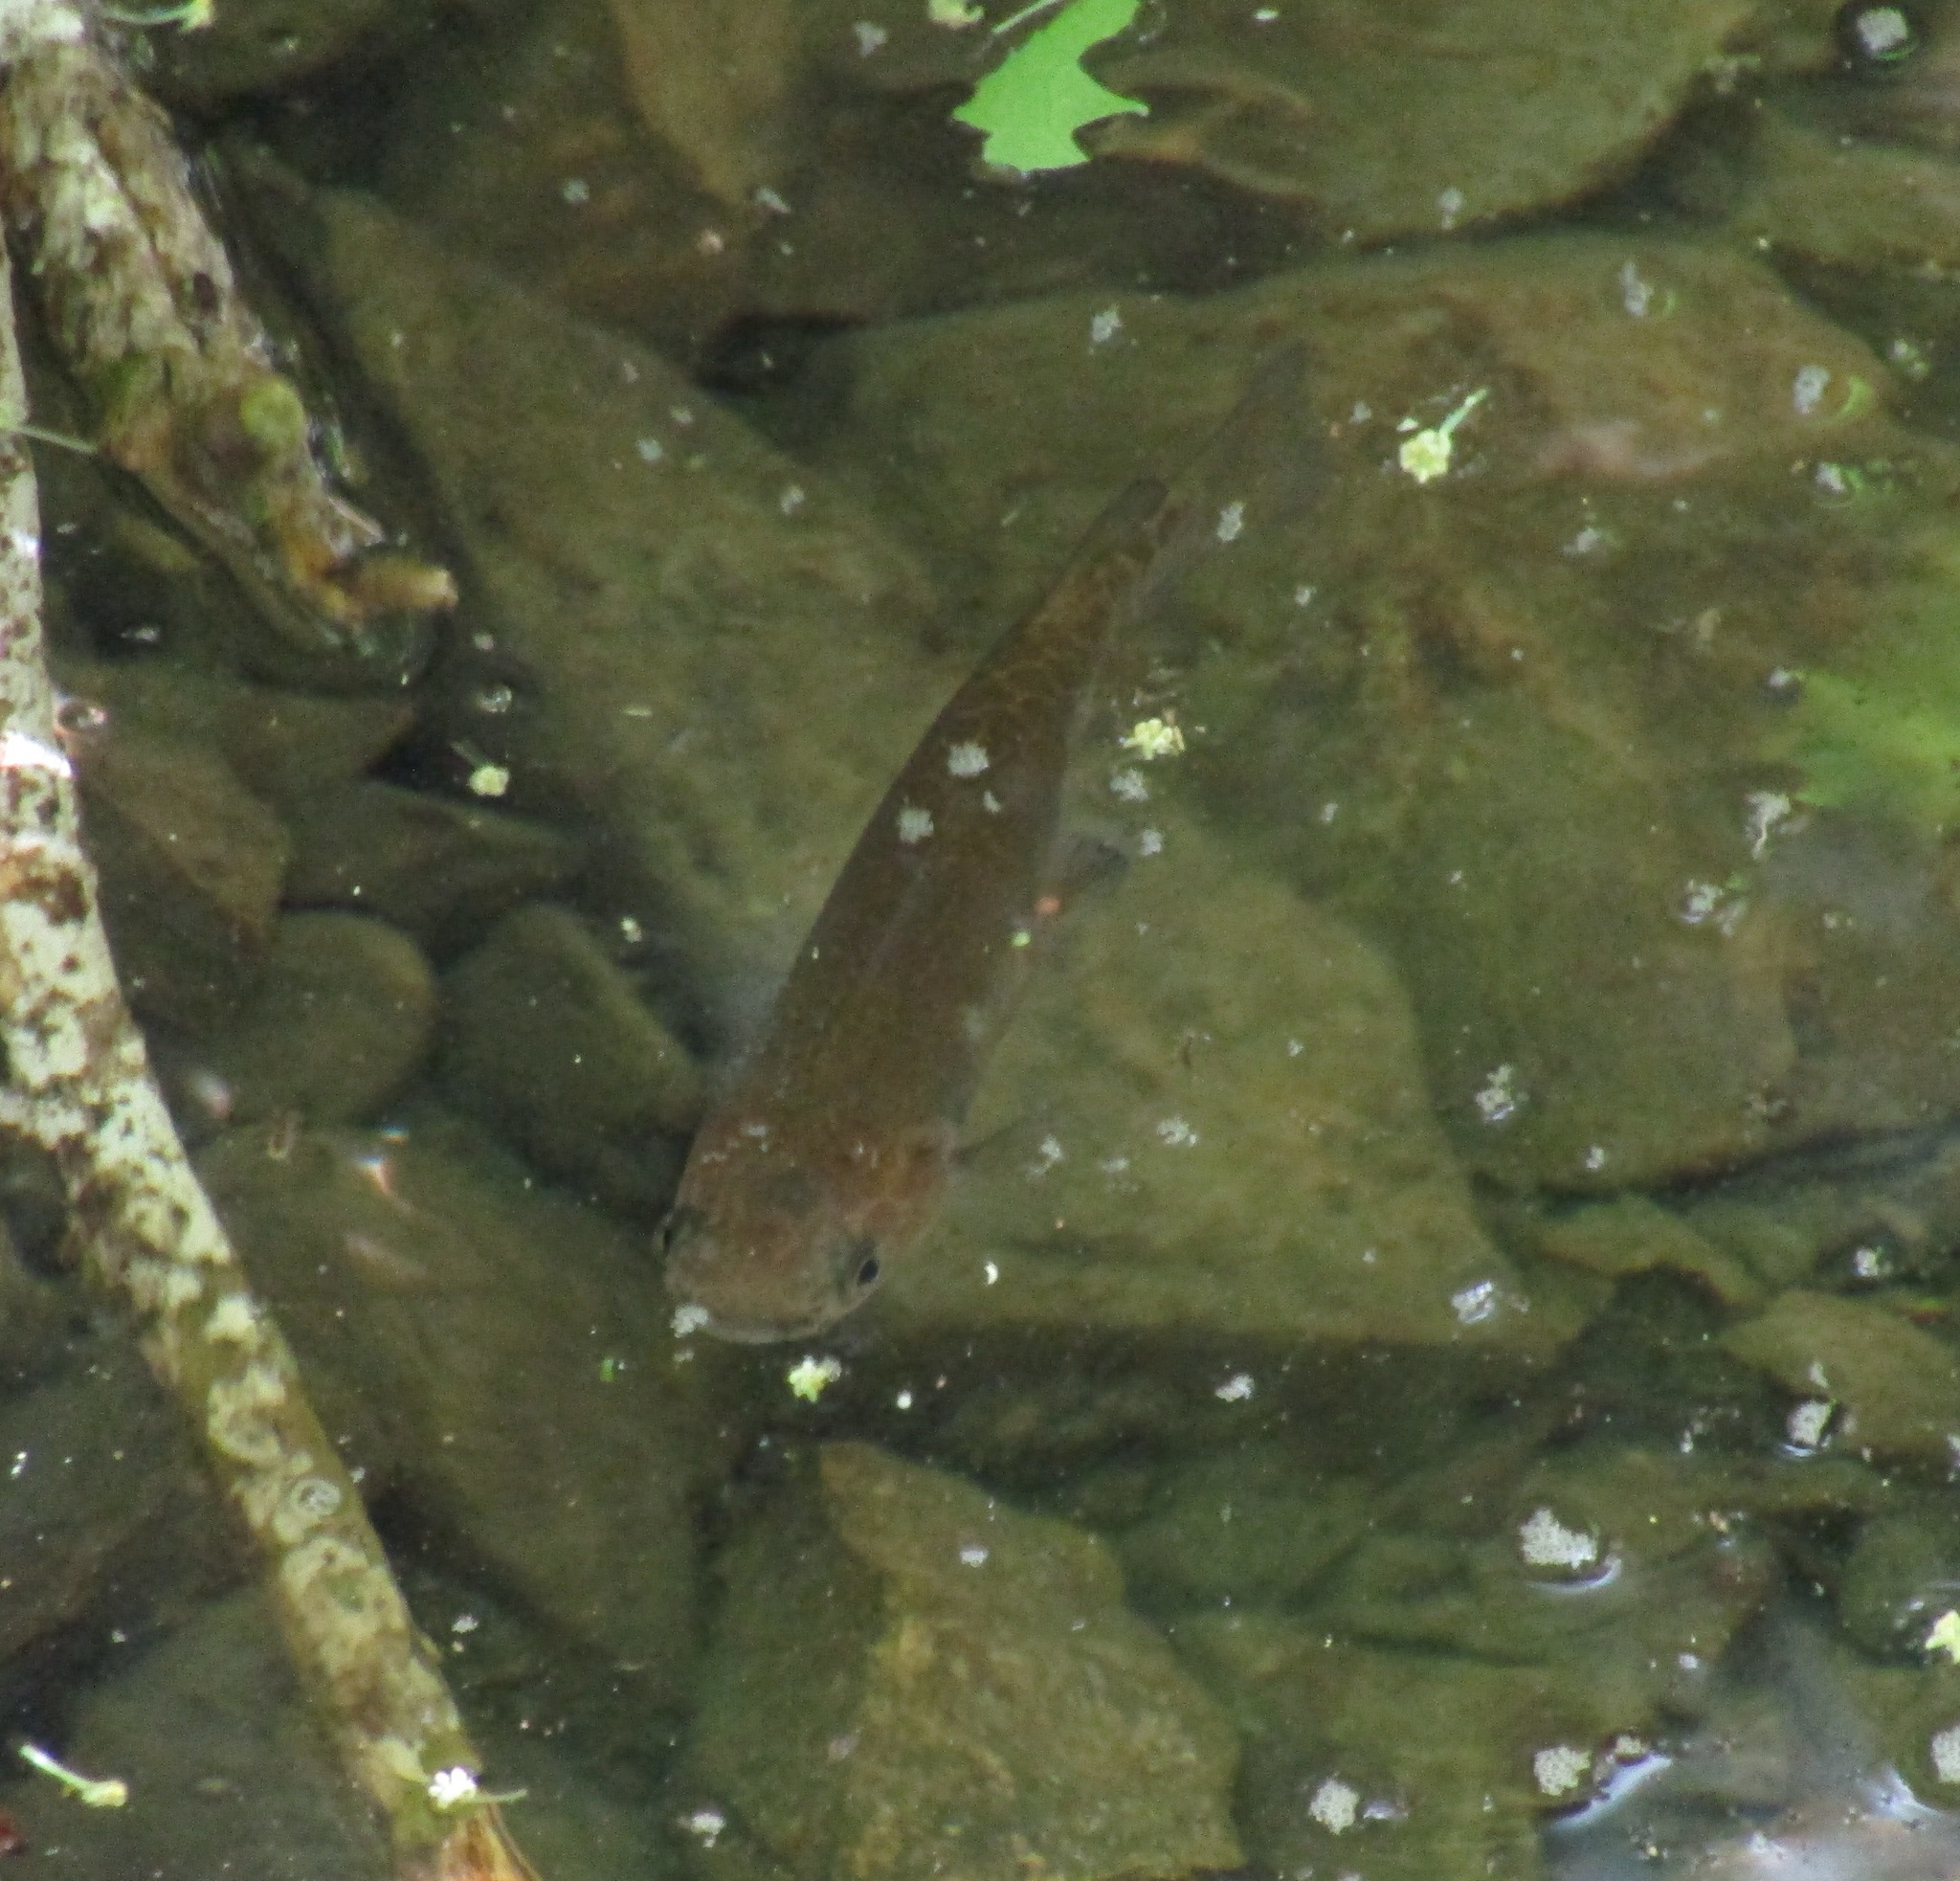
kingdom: Animalia
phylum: Chordata
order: Osmeriformes
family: Galaxiidae
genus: Galaxias
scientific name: Galaxias fasciatus
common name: Banded kokopu
